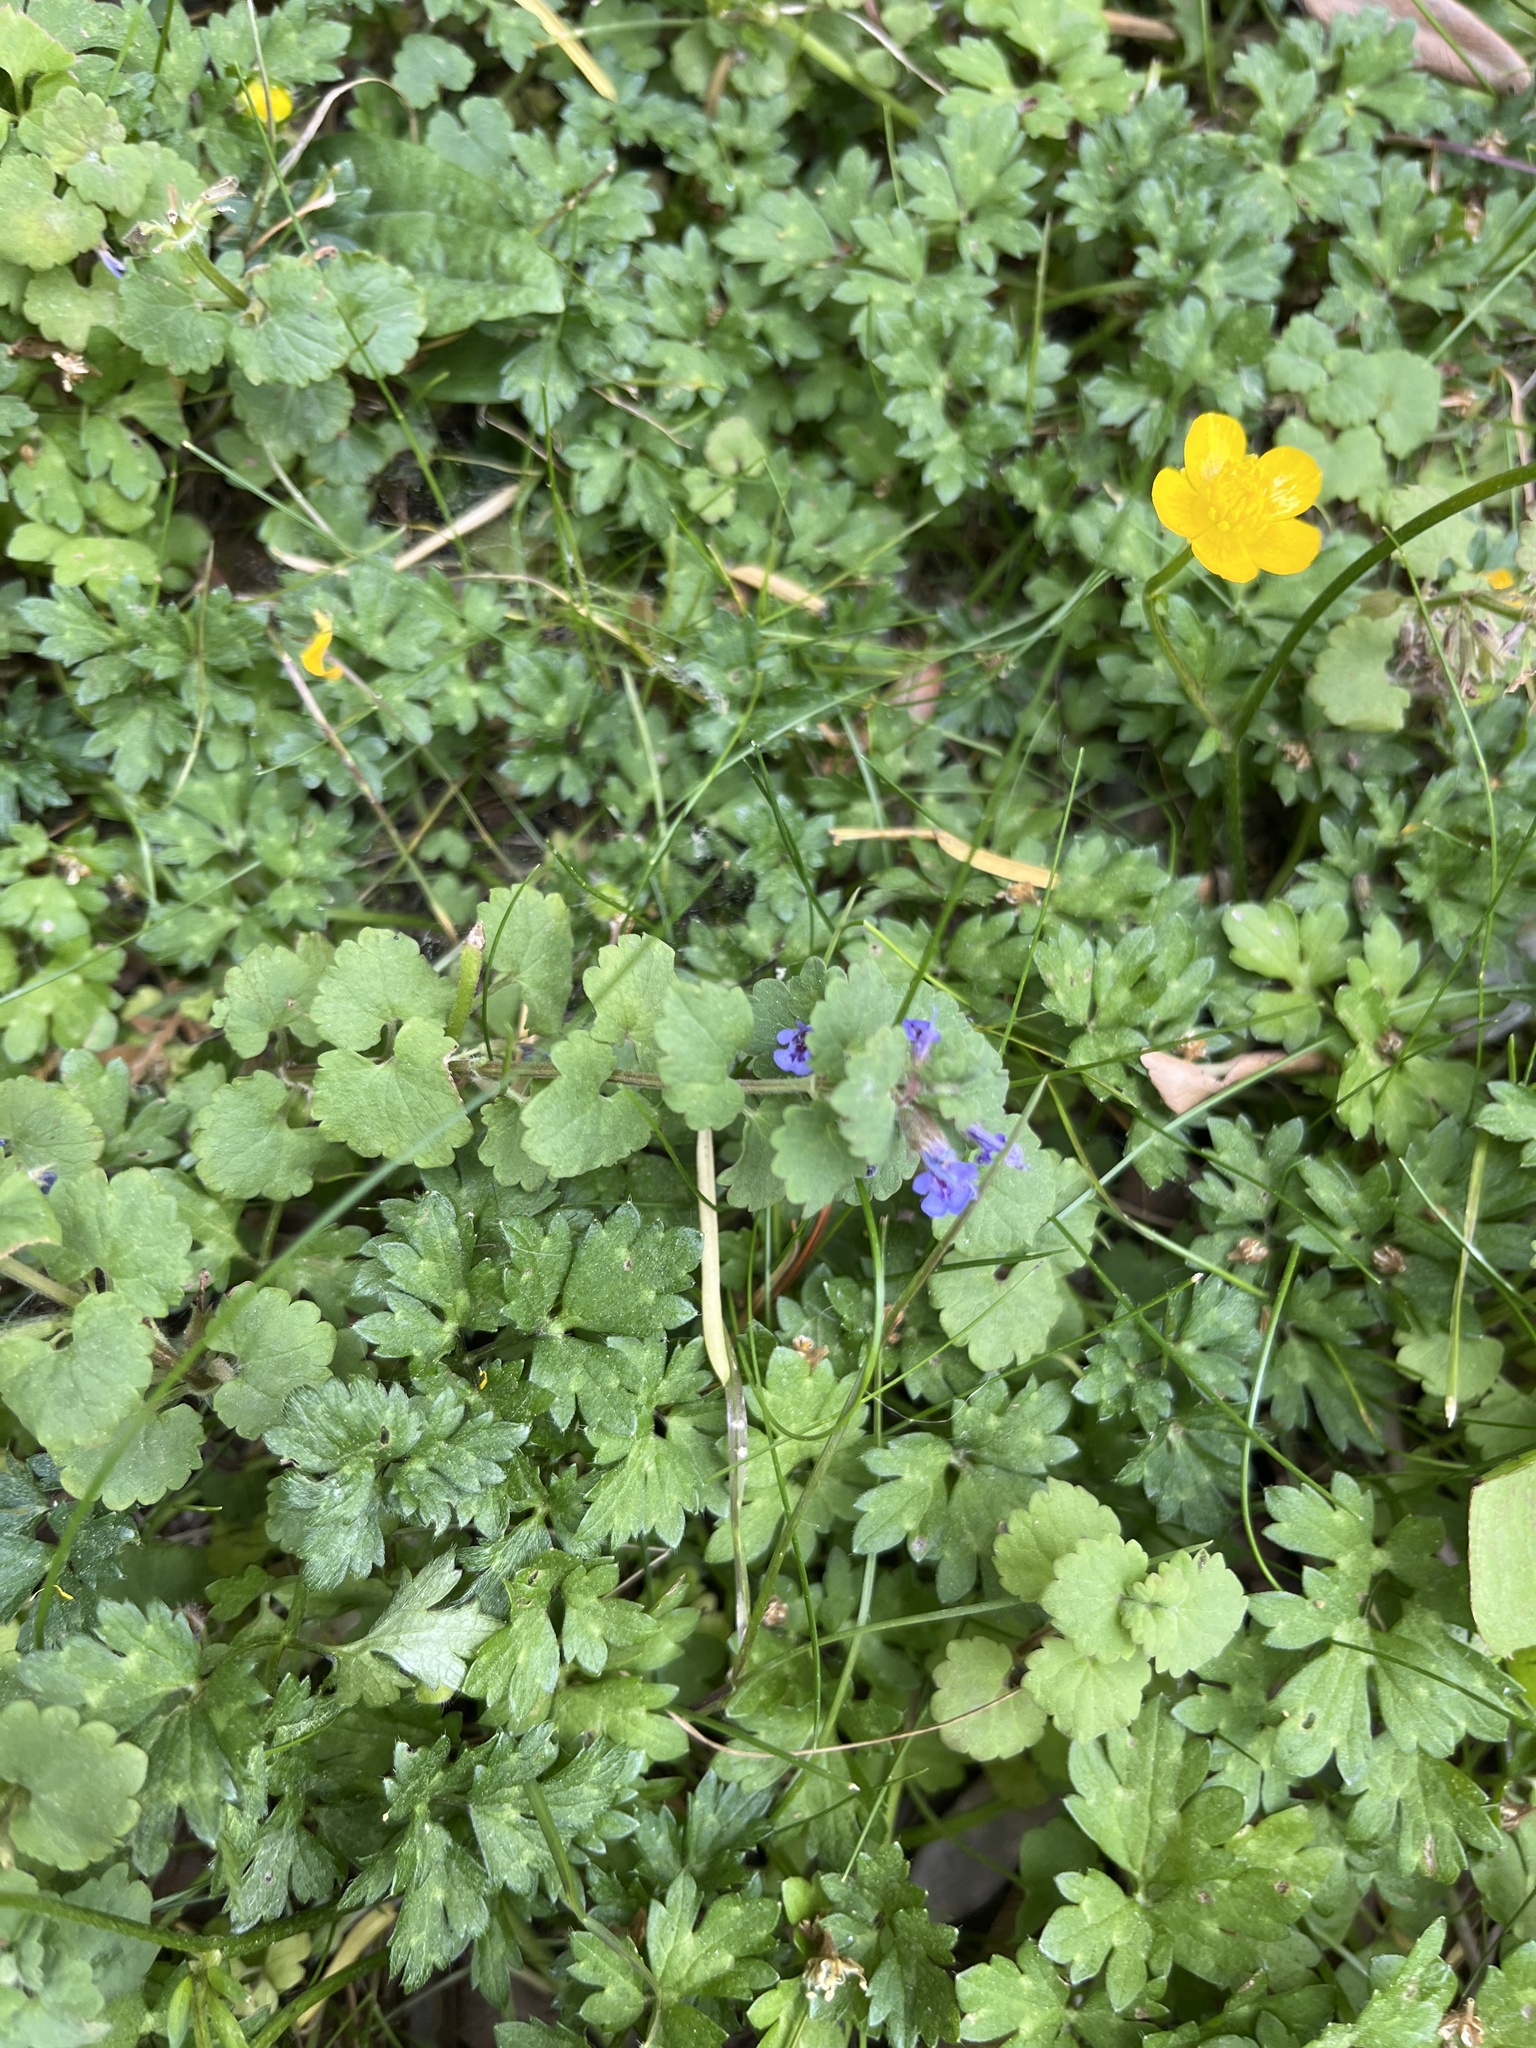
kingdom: Plantae
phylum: Tracheophyta
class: Magnoliopsida
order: Lamiales
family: Lamiaceae
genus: Glechoma
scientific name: Glechoma hederacea
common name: Ground ivy
